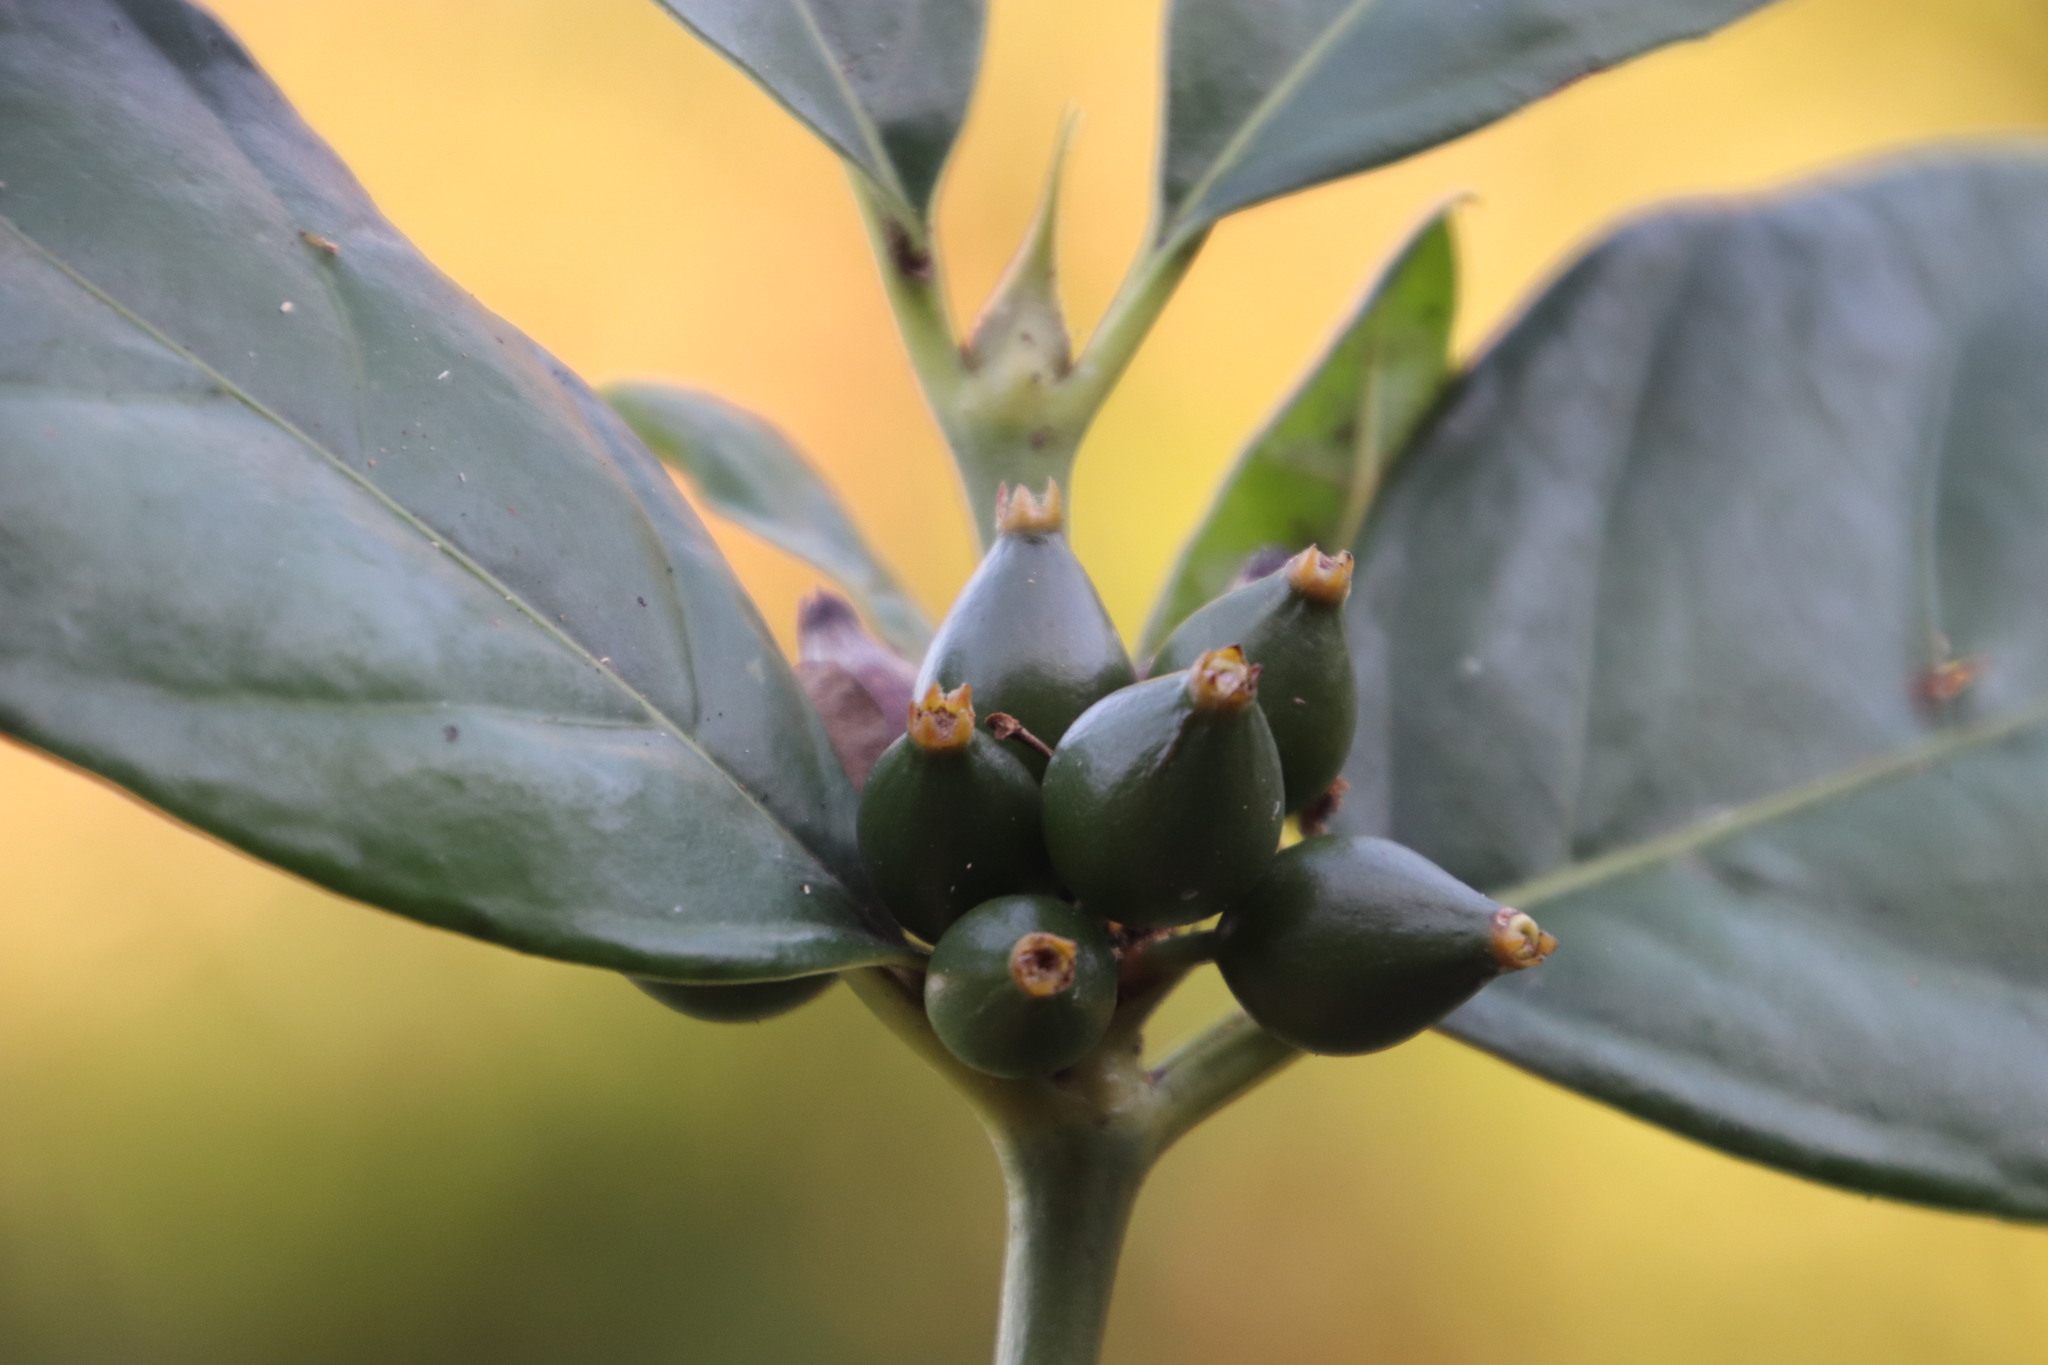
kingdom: Plantae
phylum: Tracheophyta
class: Magnoliopsida
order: Gentianales
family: Rubiaceae
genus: Mitriostigma
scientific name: Mitriostigma axillare
